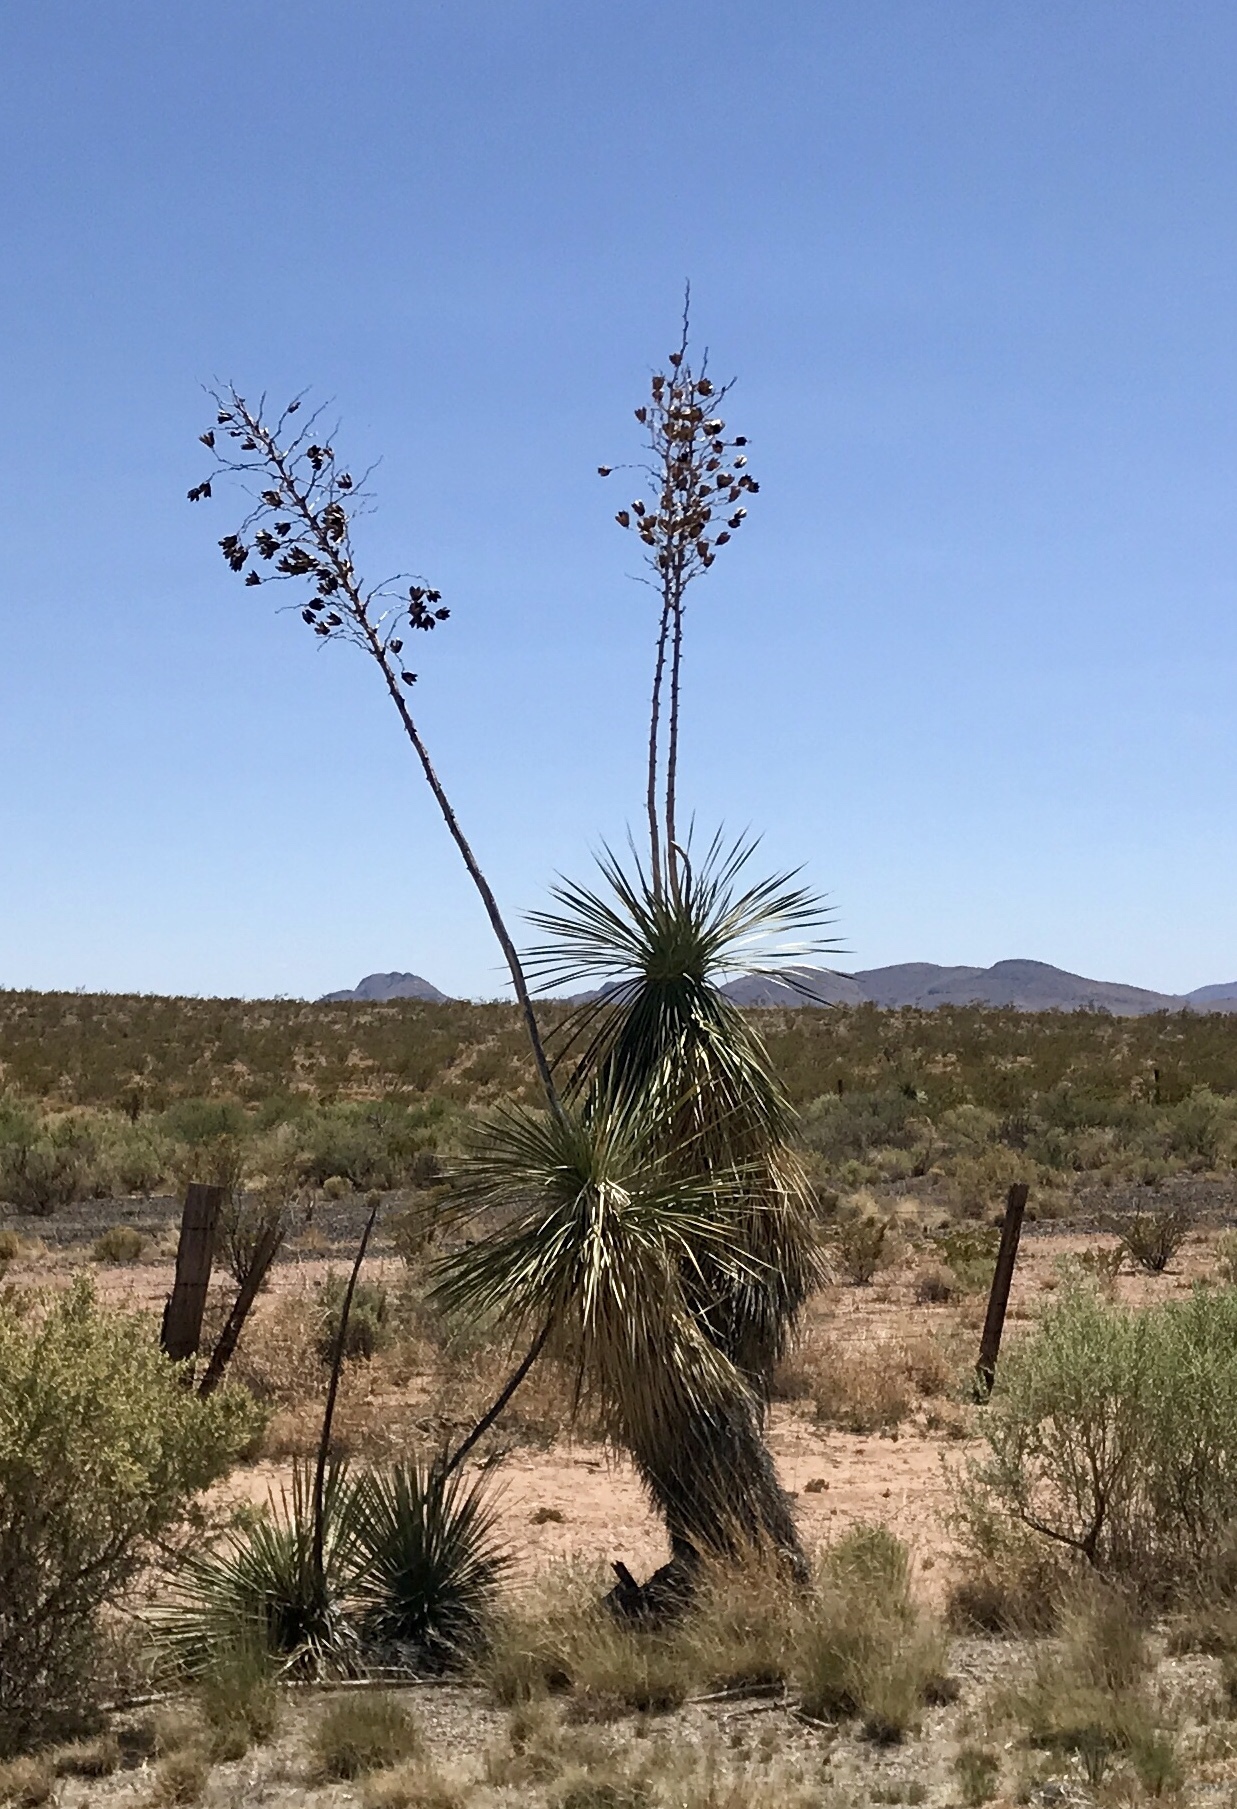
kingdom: Plantae
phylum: Tracheophyta
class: Liliopsida
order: Asparagales
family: Asparagaceae
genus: Yucca
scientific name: Yucca elata
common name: Palmella
